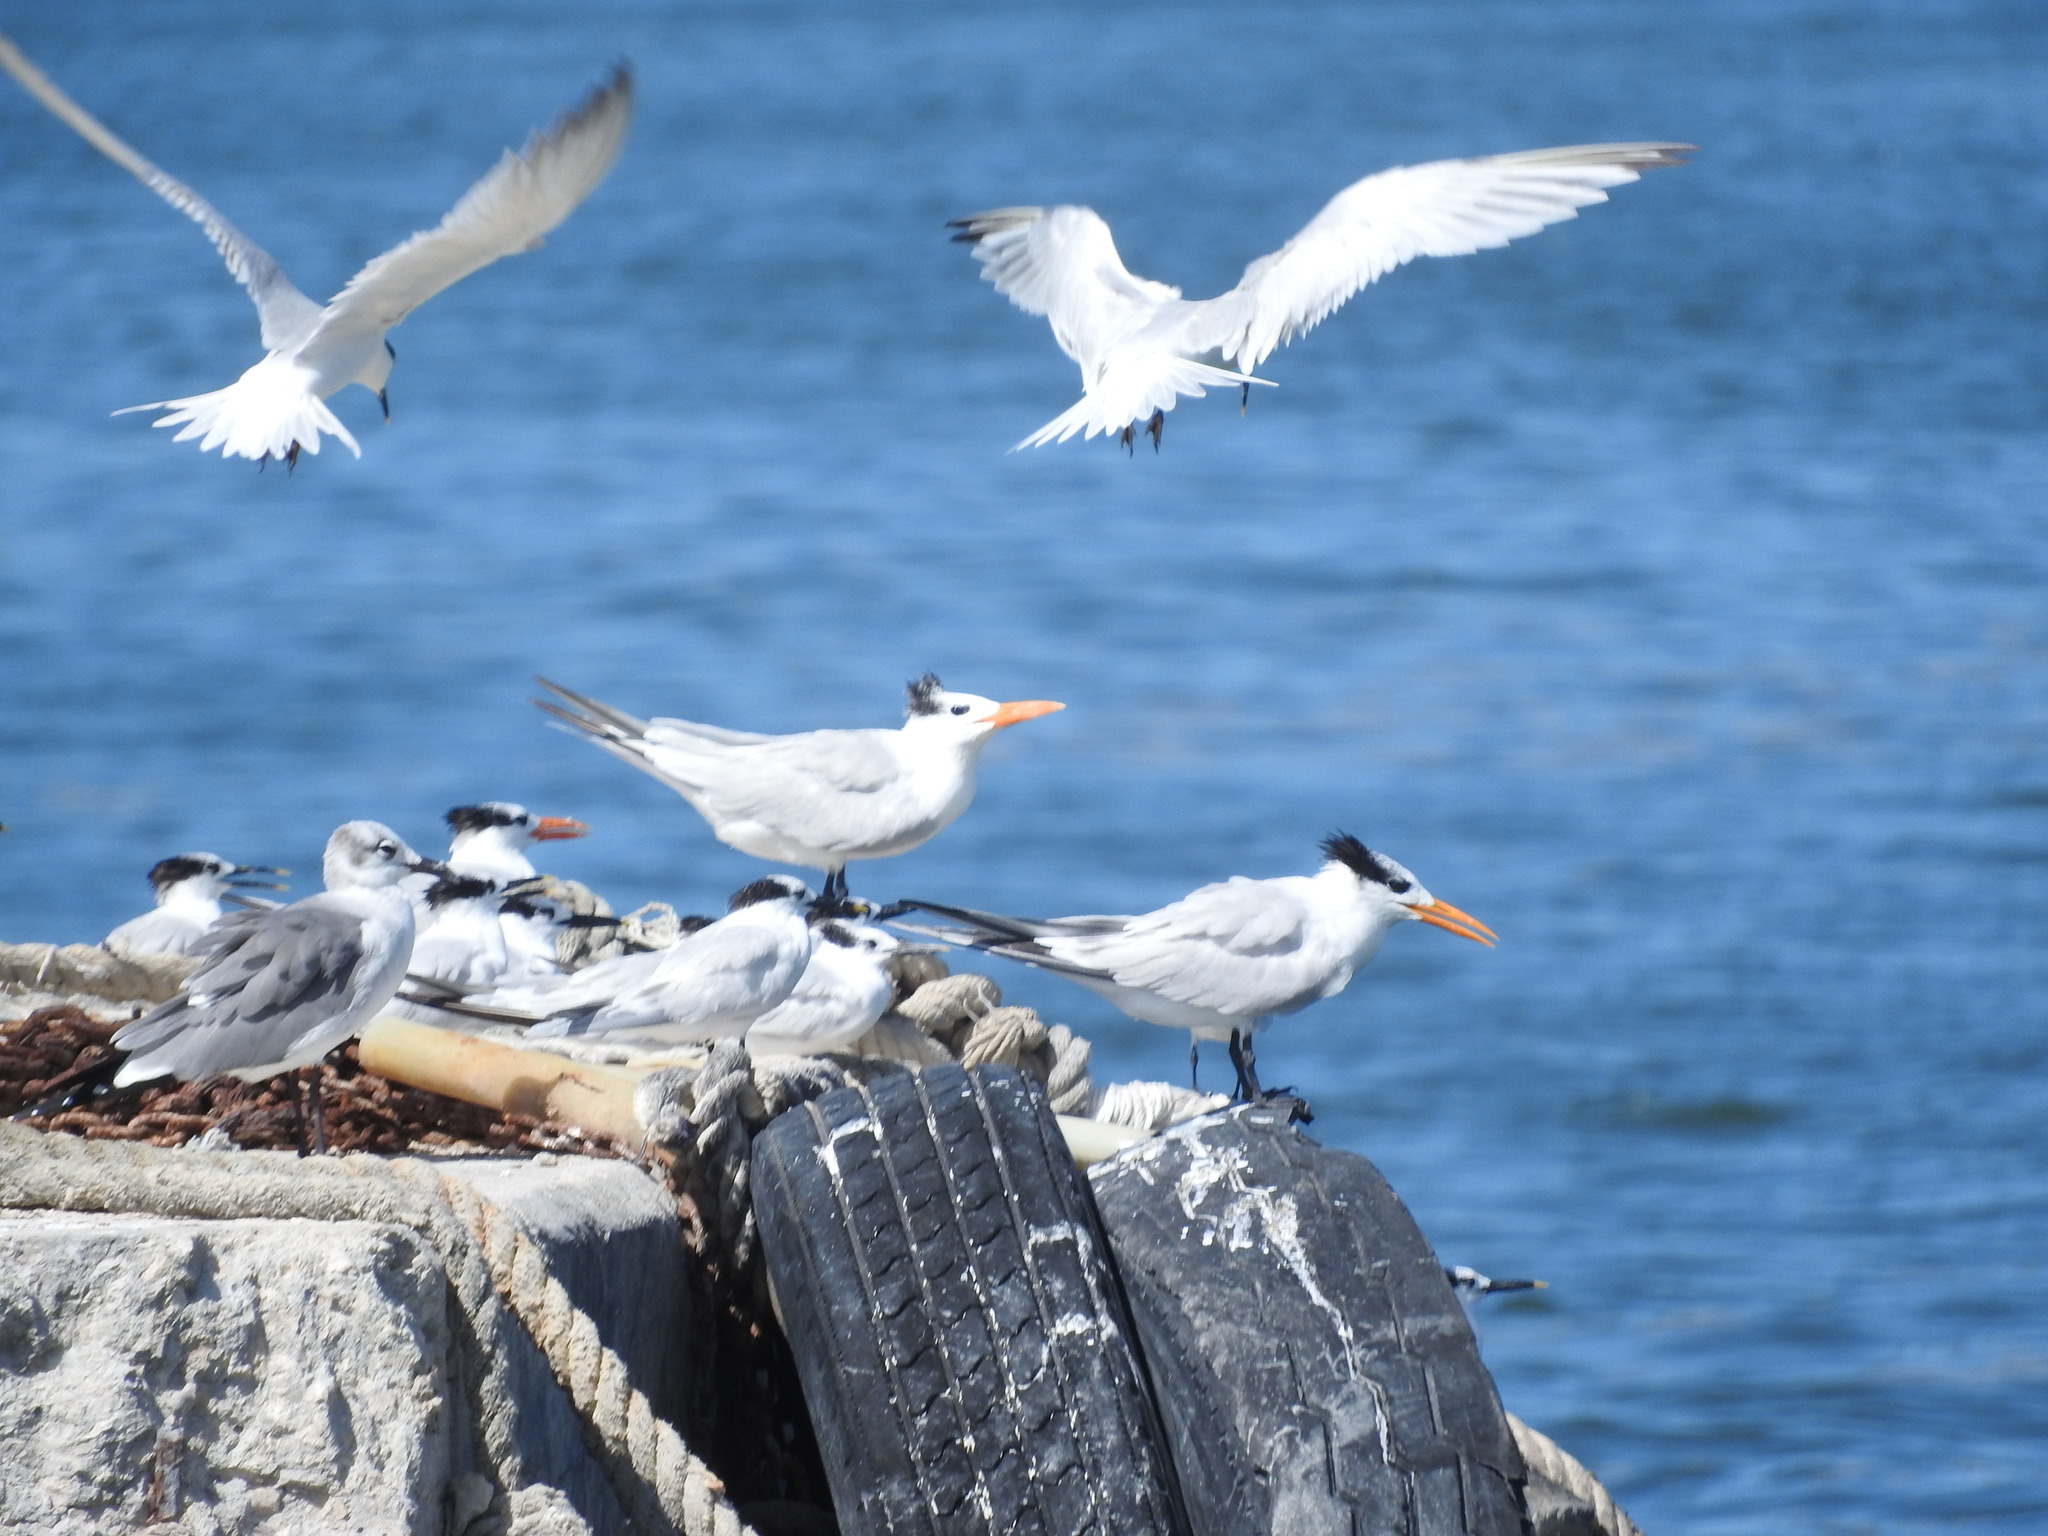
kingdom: Animalia
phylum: Chordata
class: Aves
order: Charadriiformes
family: Laridae
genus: Thalasseus
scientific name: Thalasseus maximus
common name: Royal tern
